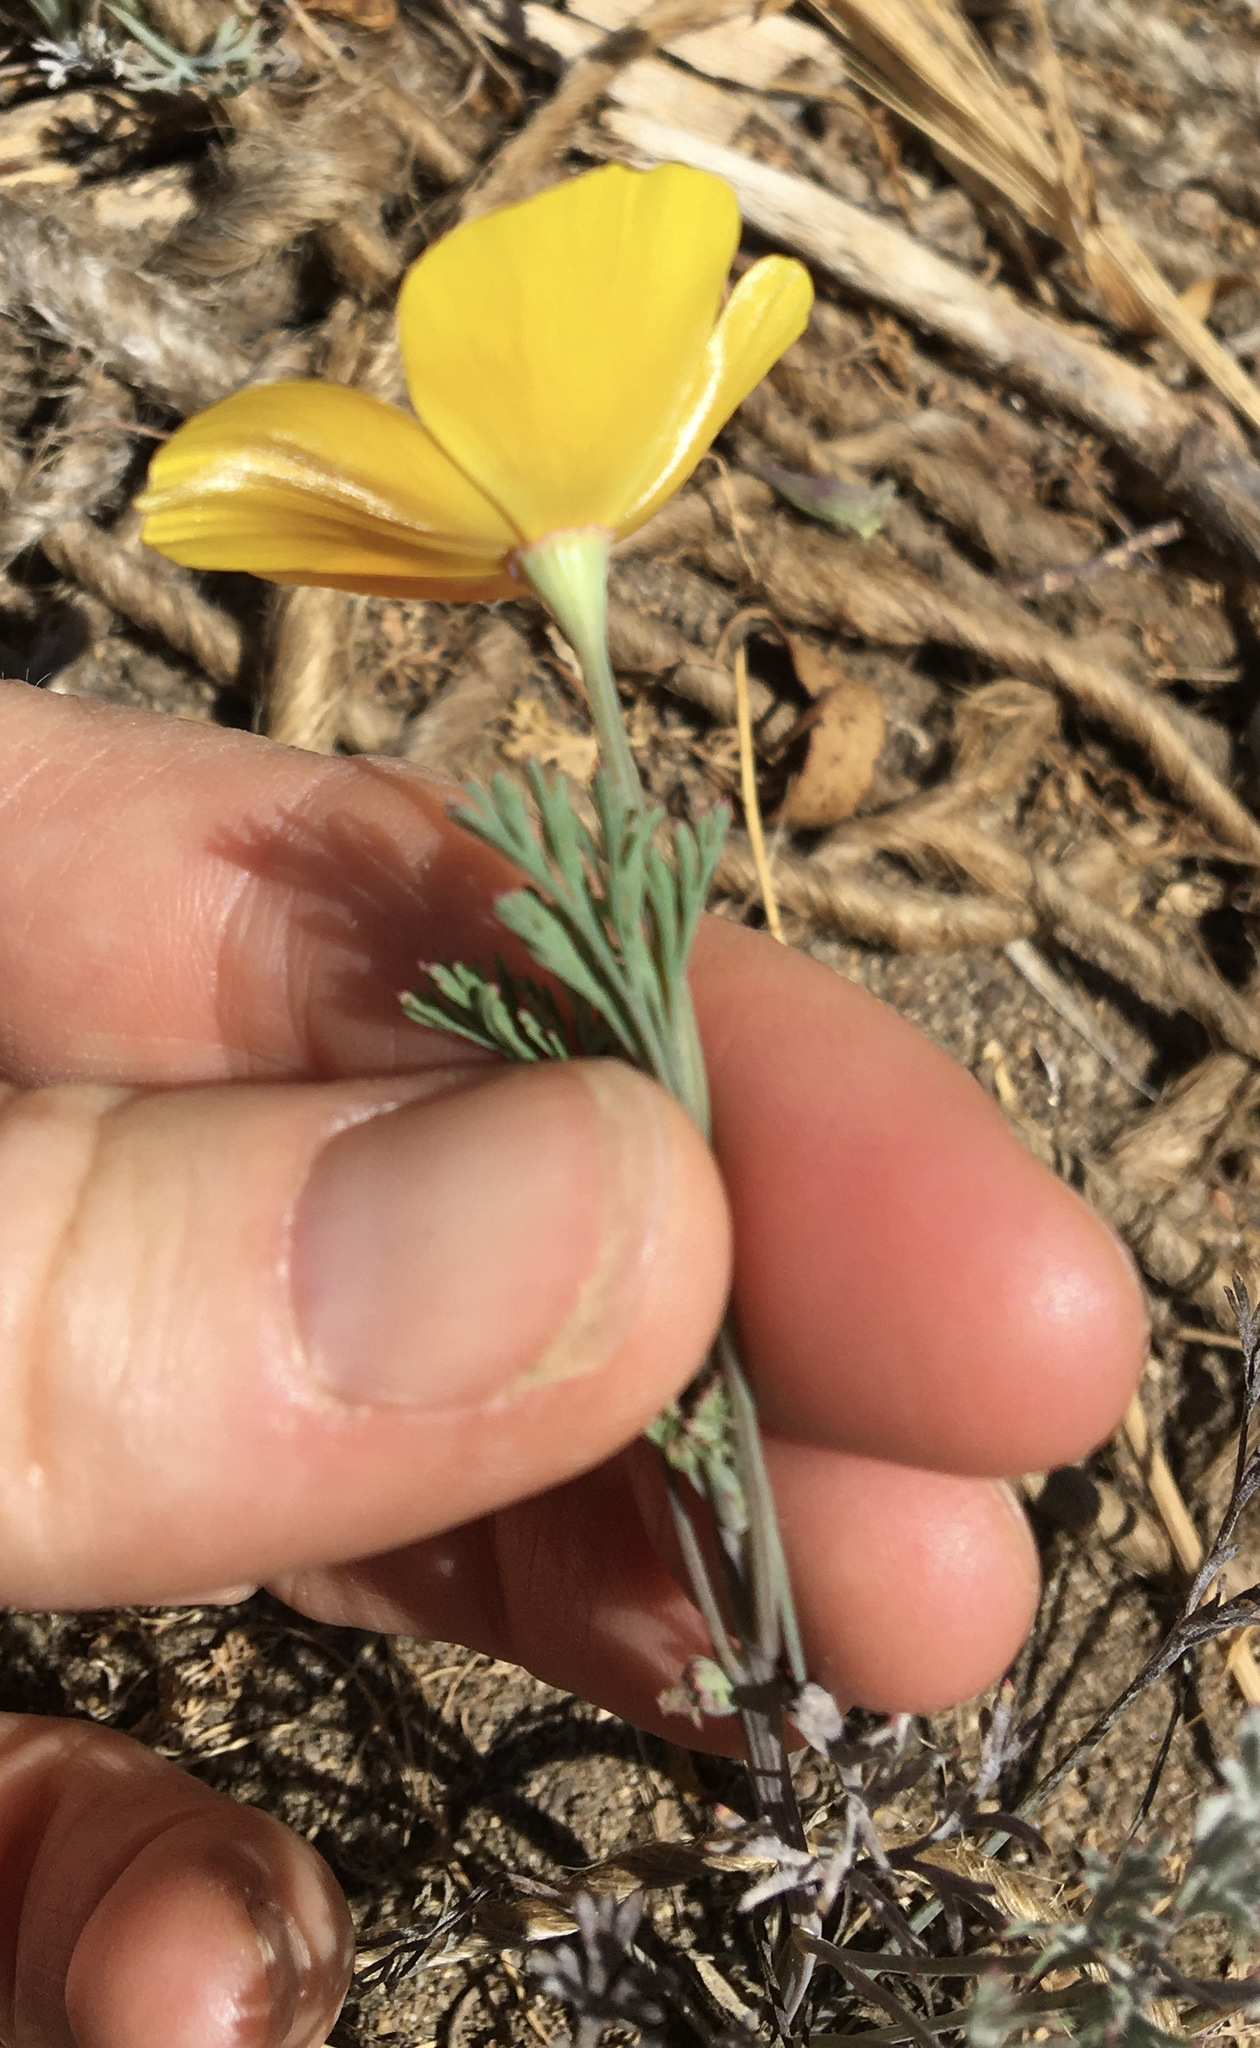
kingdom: Plantae
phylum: Tracheophyta
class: Magnoliopsida
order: Ranunculales
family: Papaveraceae
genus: Eschscholzia
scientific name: Eschscholzia caespitosa
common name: Tufted california-poppy
